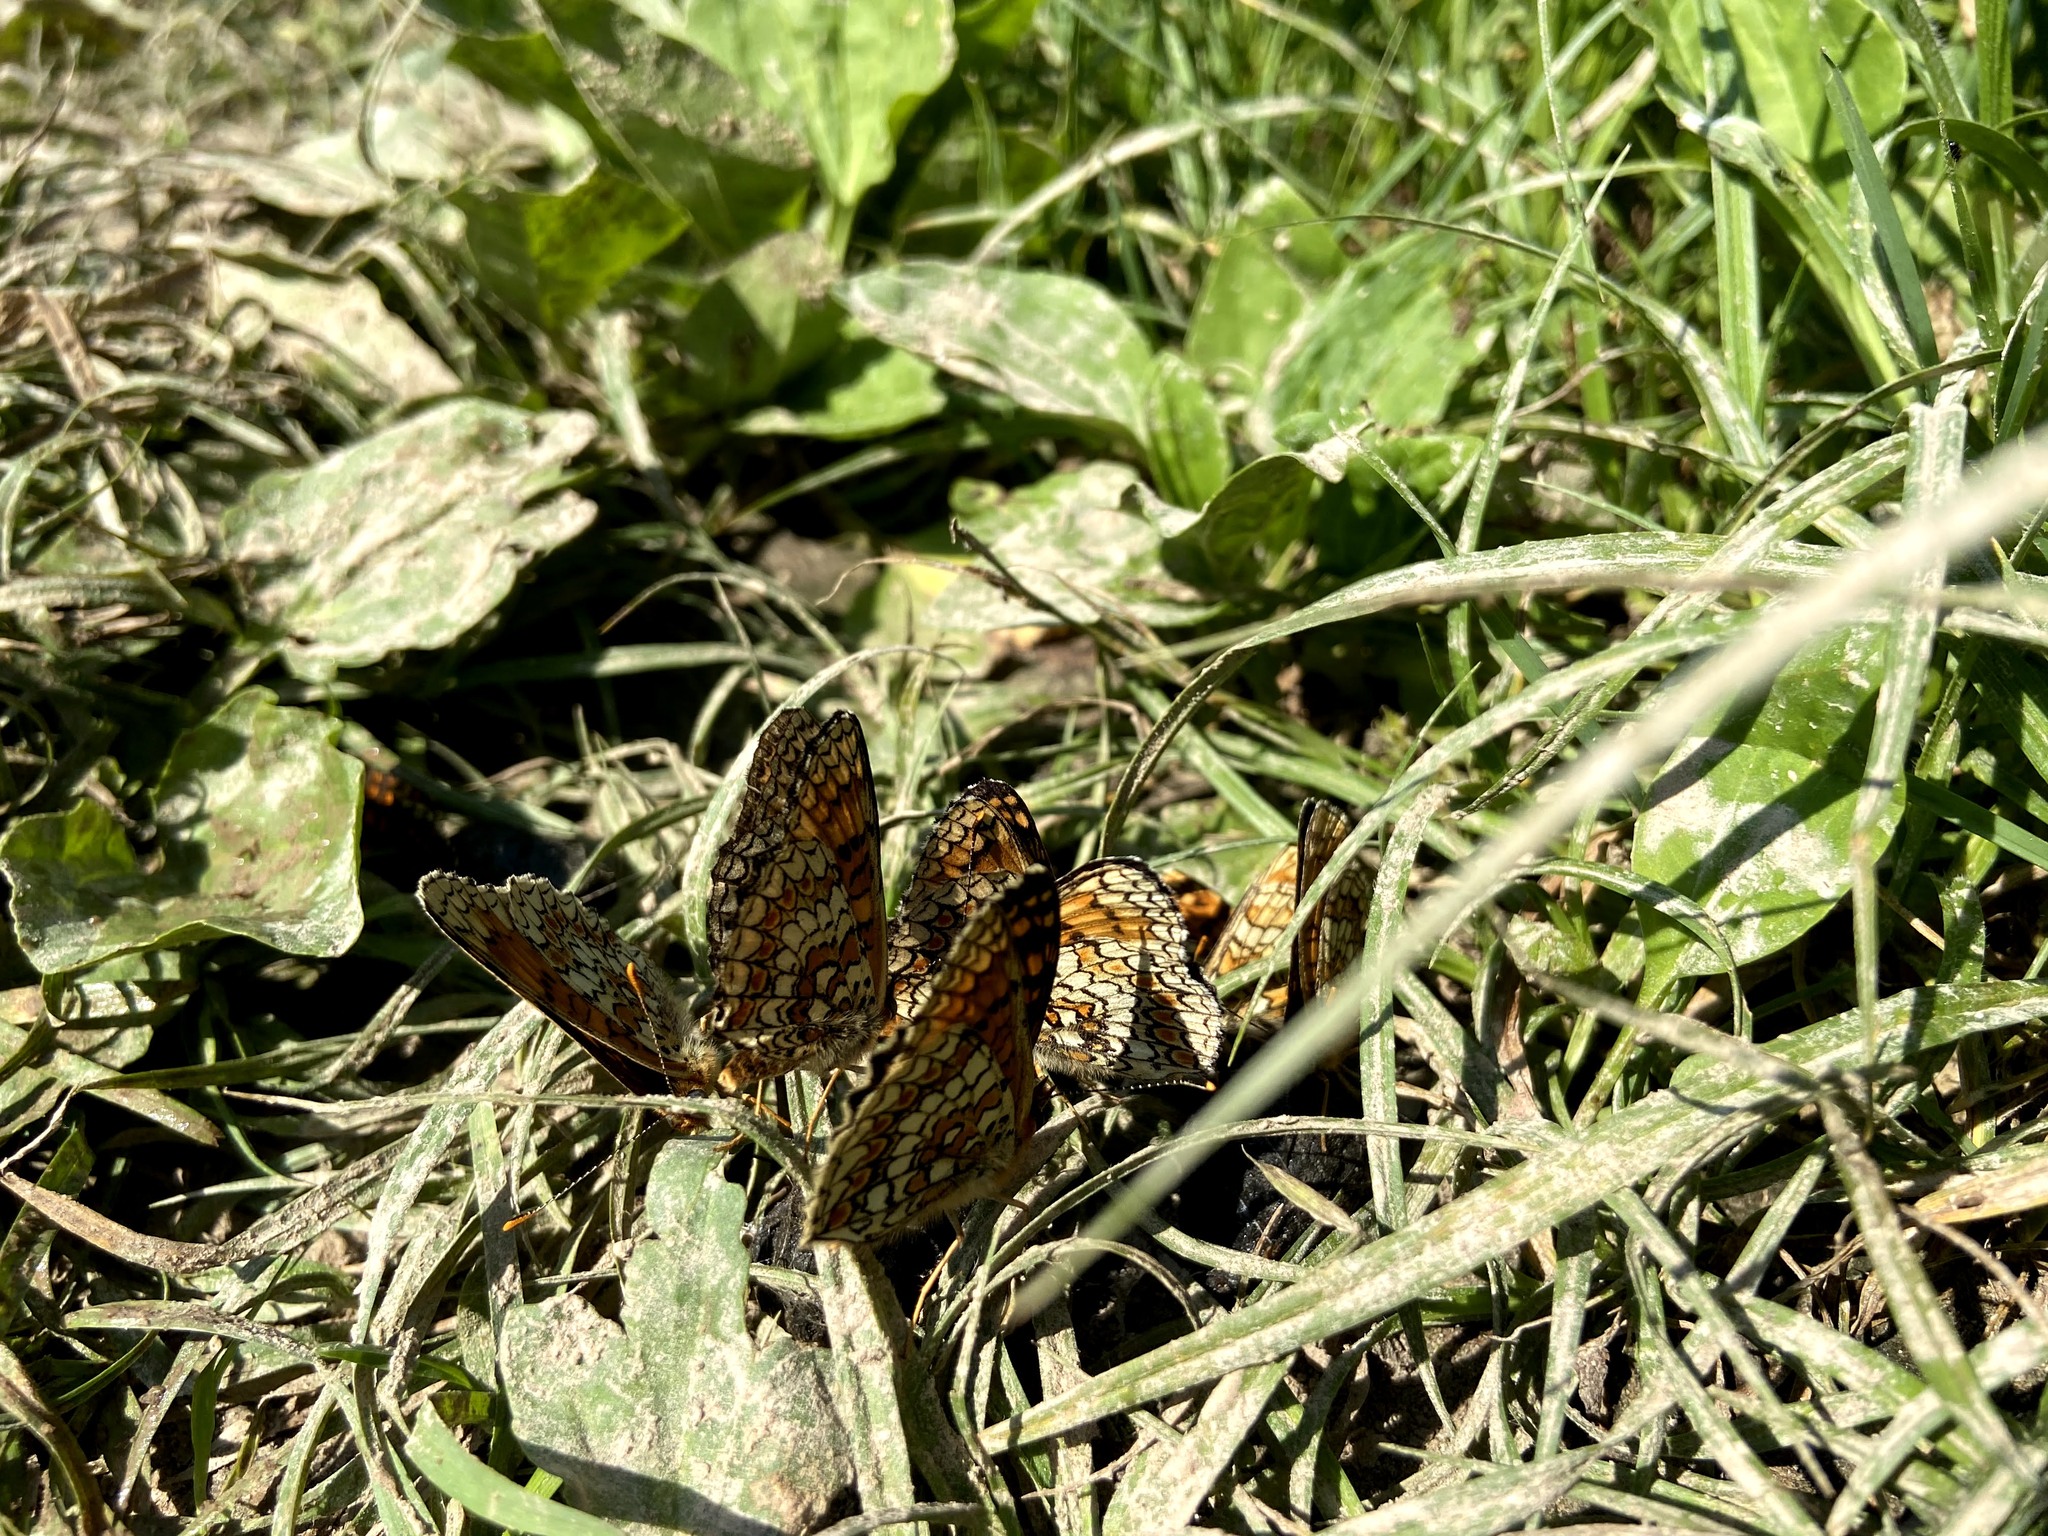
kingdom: Animalia
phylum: Arthropoda
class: Insecta
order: Lepidoptera
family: Nymphalidae
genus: Melitaea
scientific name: Melitaea phoebe
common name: Knapweed fritillary
